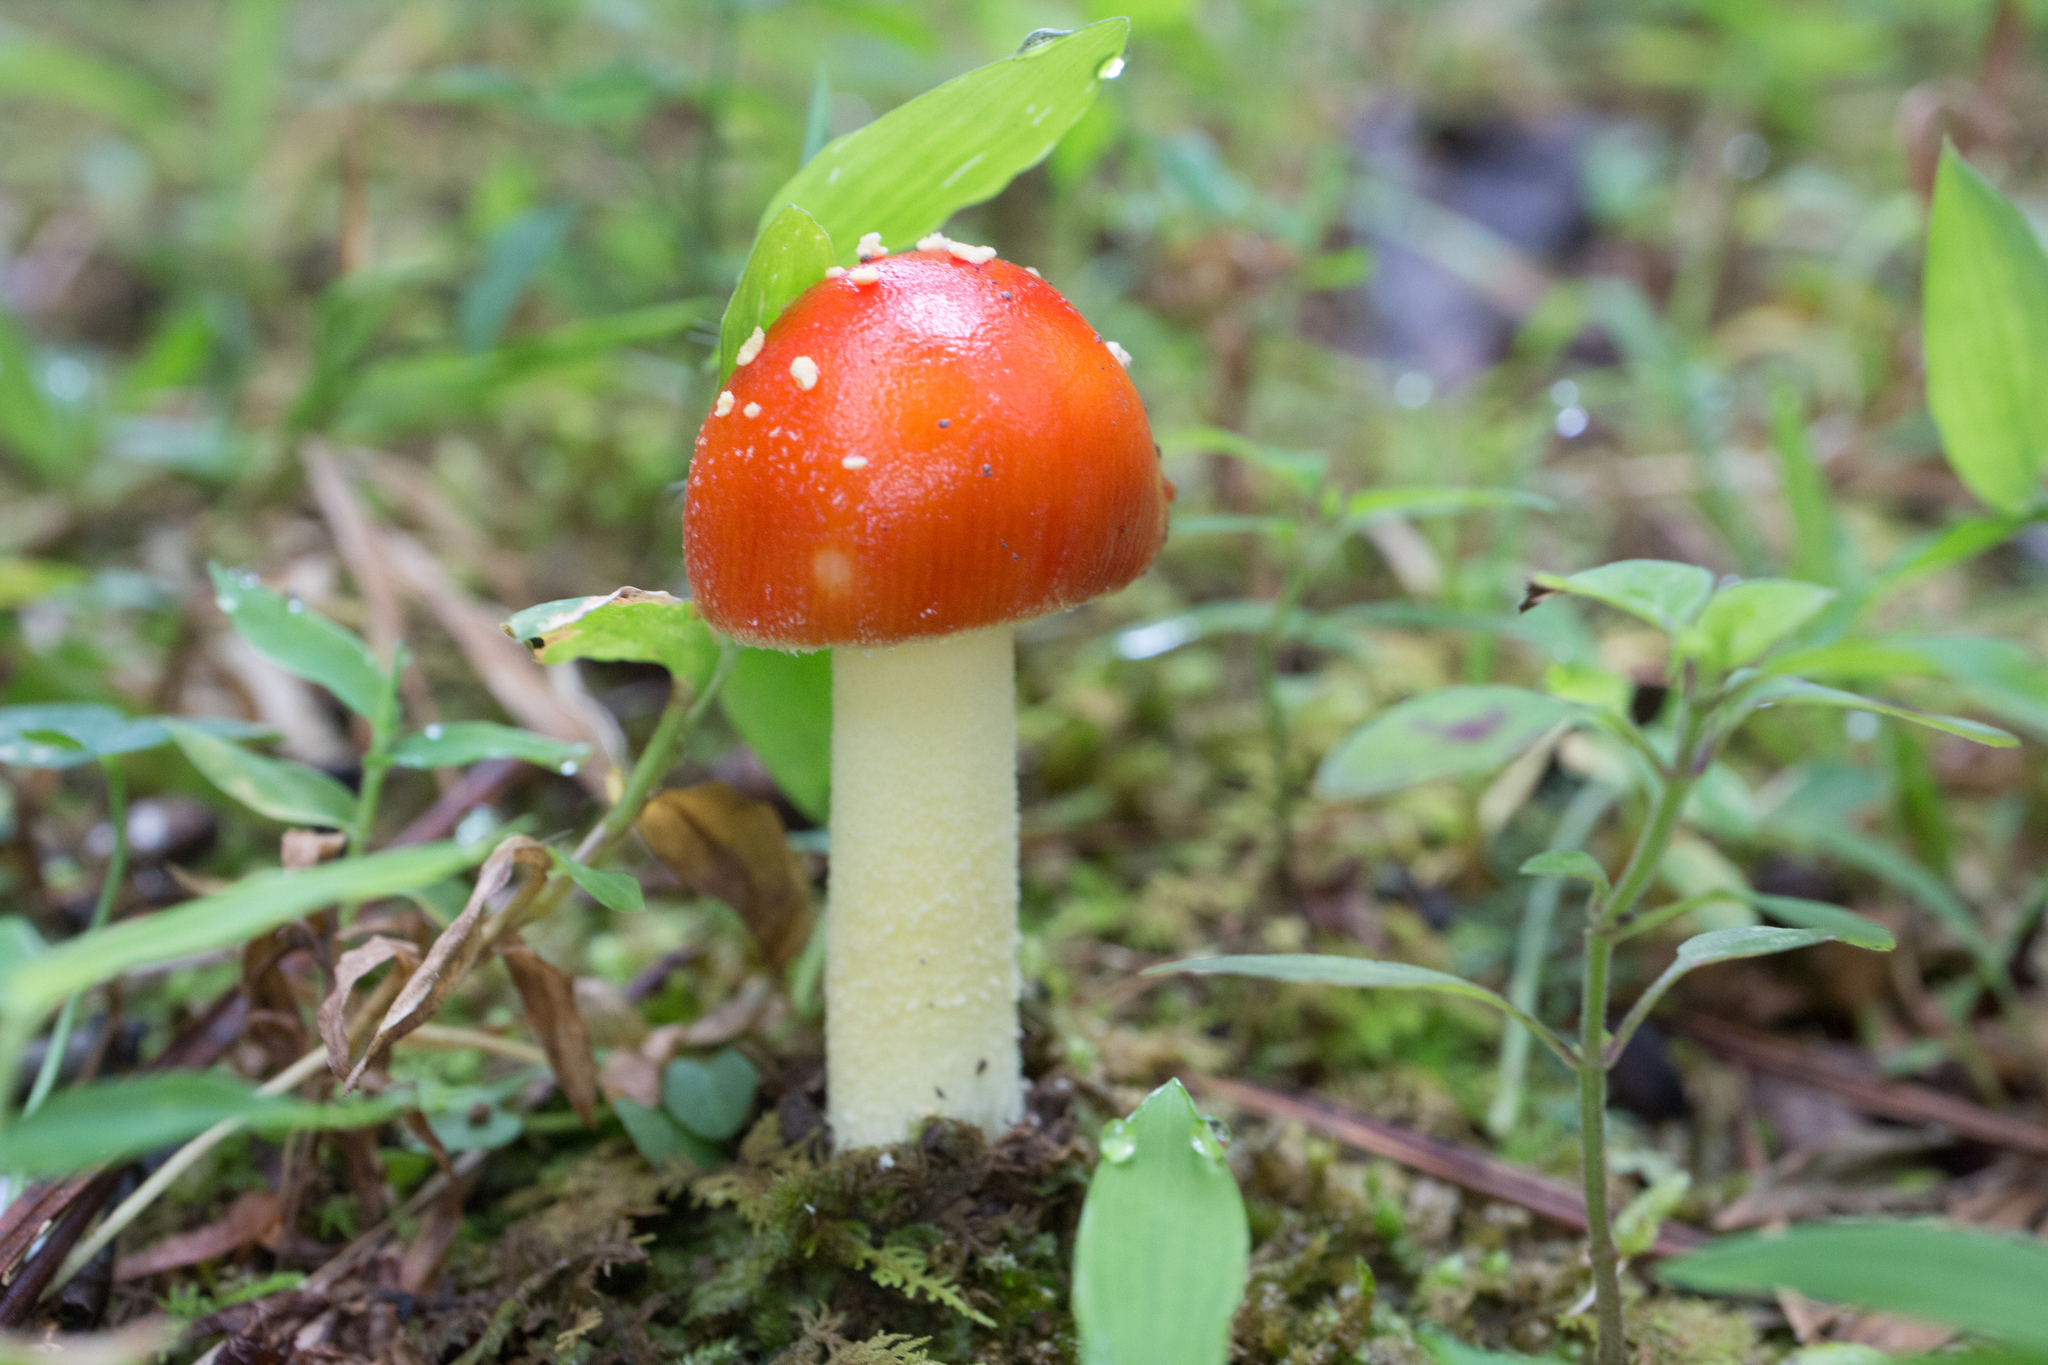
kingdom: Fungi
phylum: Basidiomycota
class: Agaricomycetes
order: Agaricales
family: Amanitaceae
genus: Amanita
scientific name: Amanita parcivolvata
